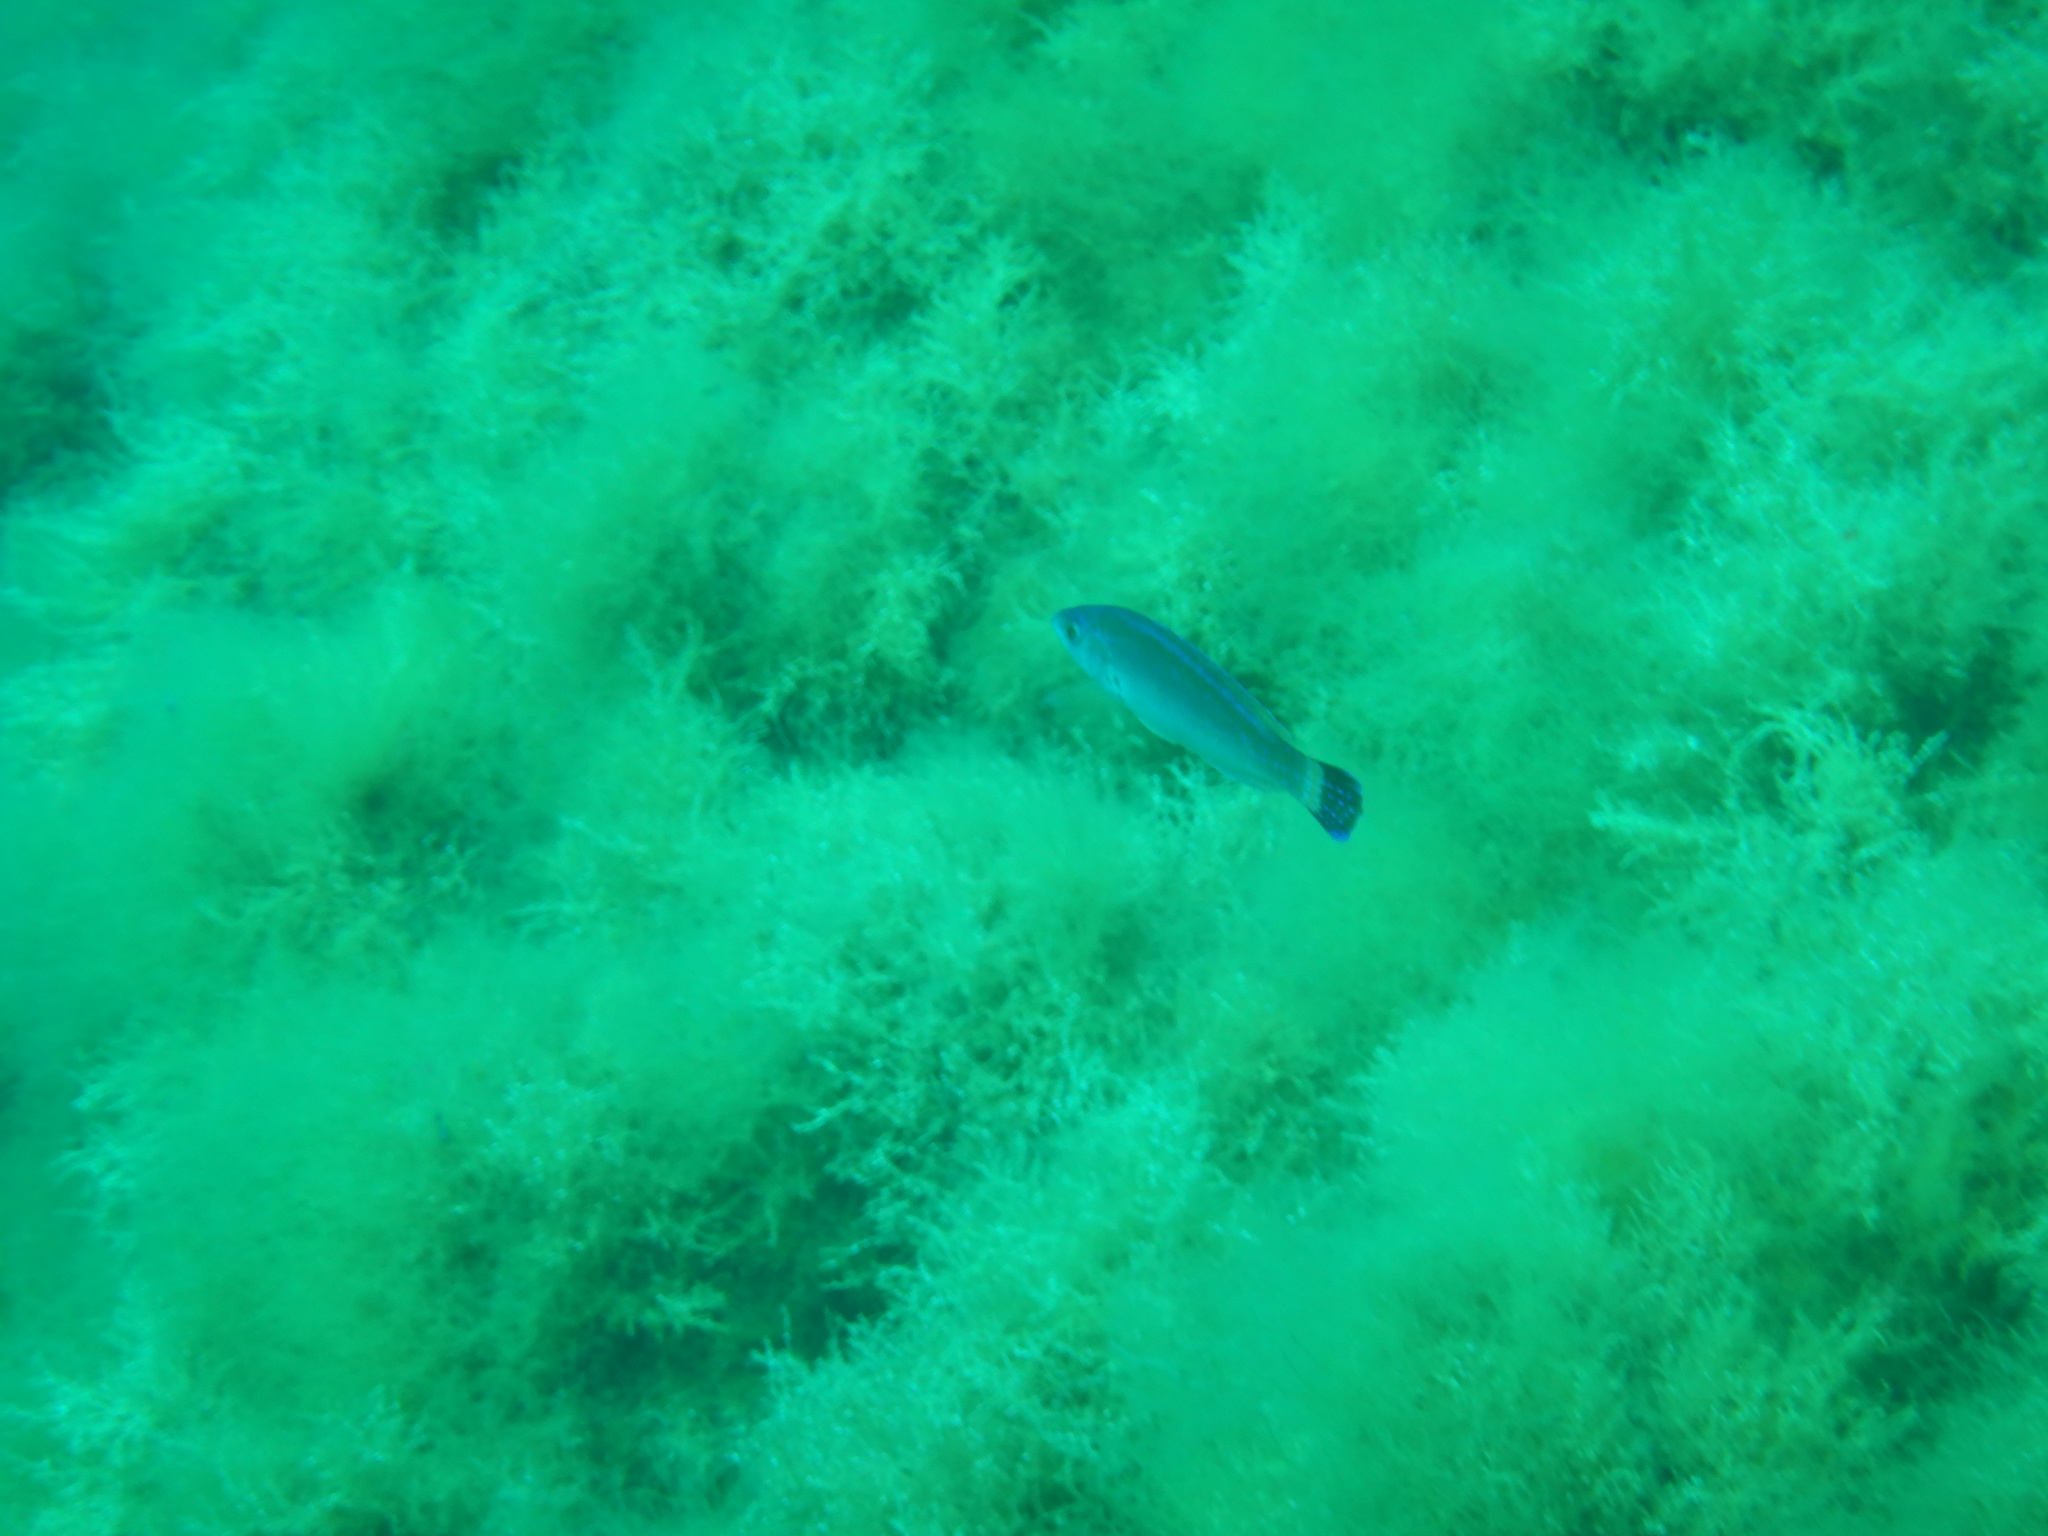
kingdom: Animalia
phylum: Chordata
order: Perciformes
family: Labridae
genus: Centrolabrus
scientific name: Centrolabrus melanocercus
